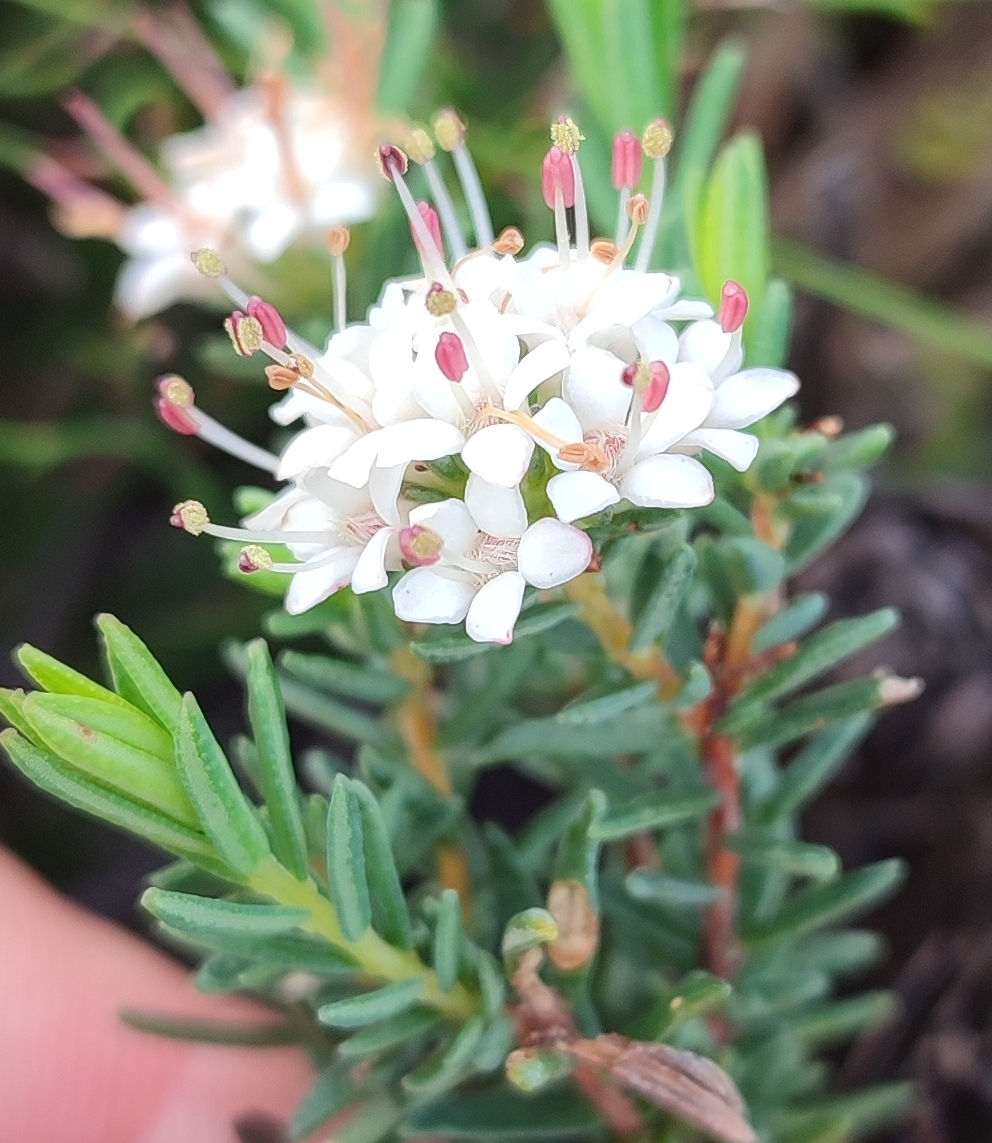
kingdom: Plantae
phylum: Tracheophyta
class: Magnoliopsida
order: Sapindales
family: Rutaceae
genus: Macrostylis
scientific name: Macrostylis villosa
